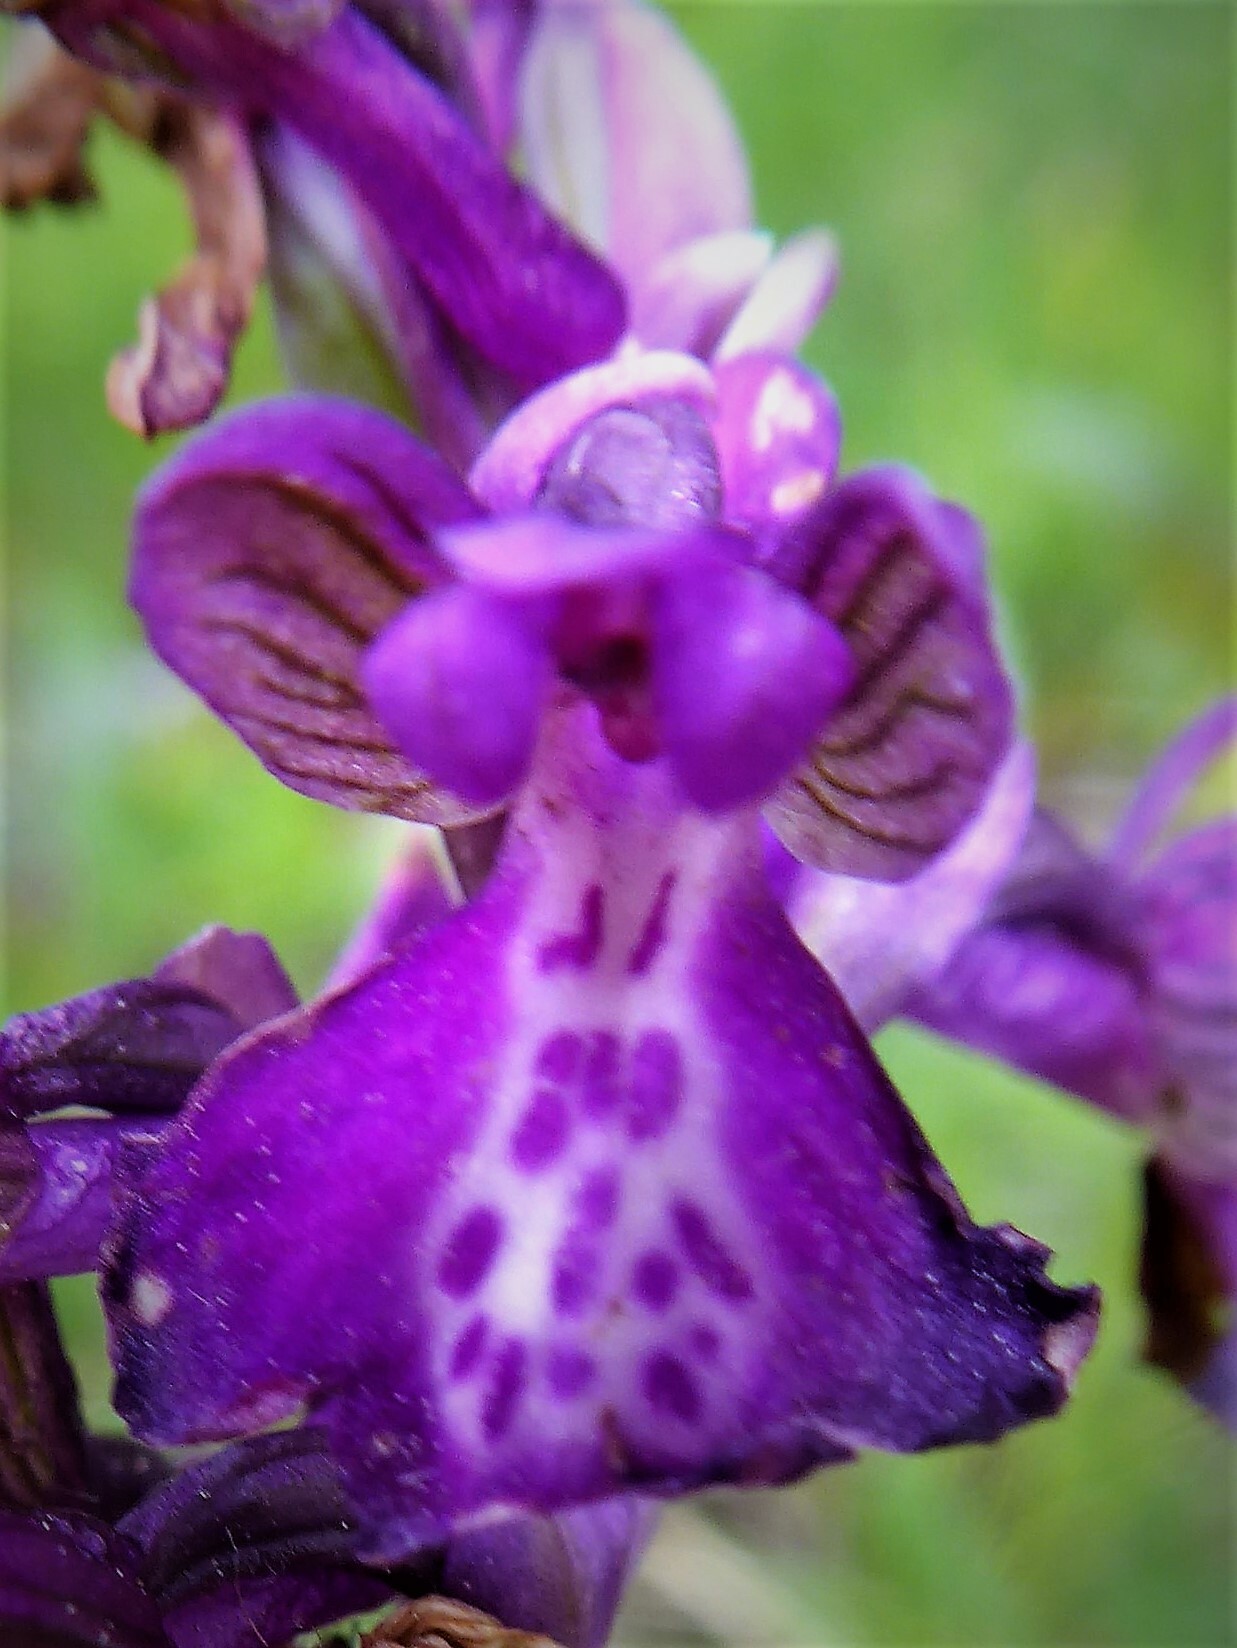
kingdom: Plantae
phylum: Tracheophyta
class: Liliopsida
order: Asparagales
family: Orchidaceae
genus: Anacamptis
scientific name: Anacamptis morio
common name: Green-winged orchid
